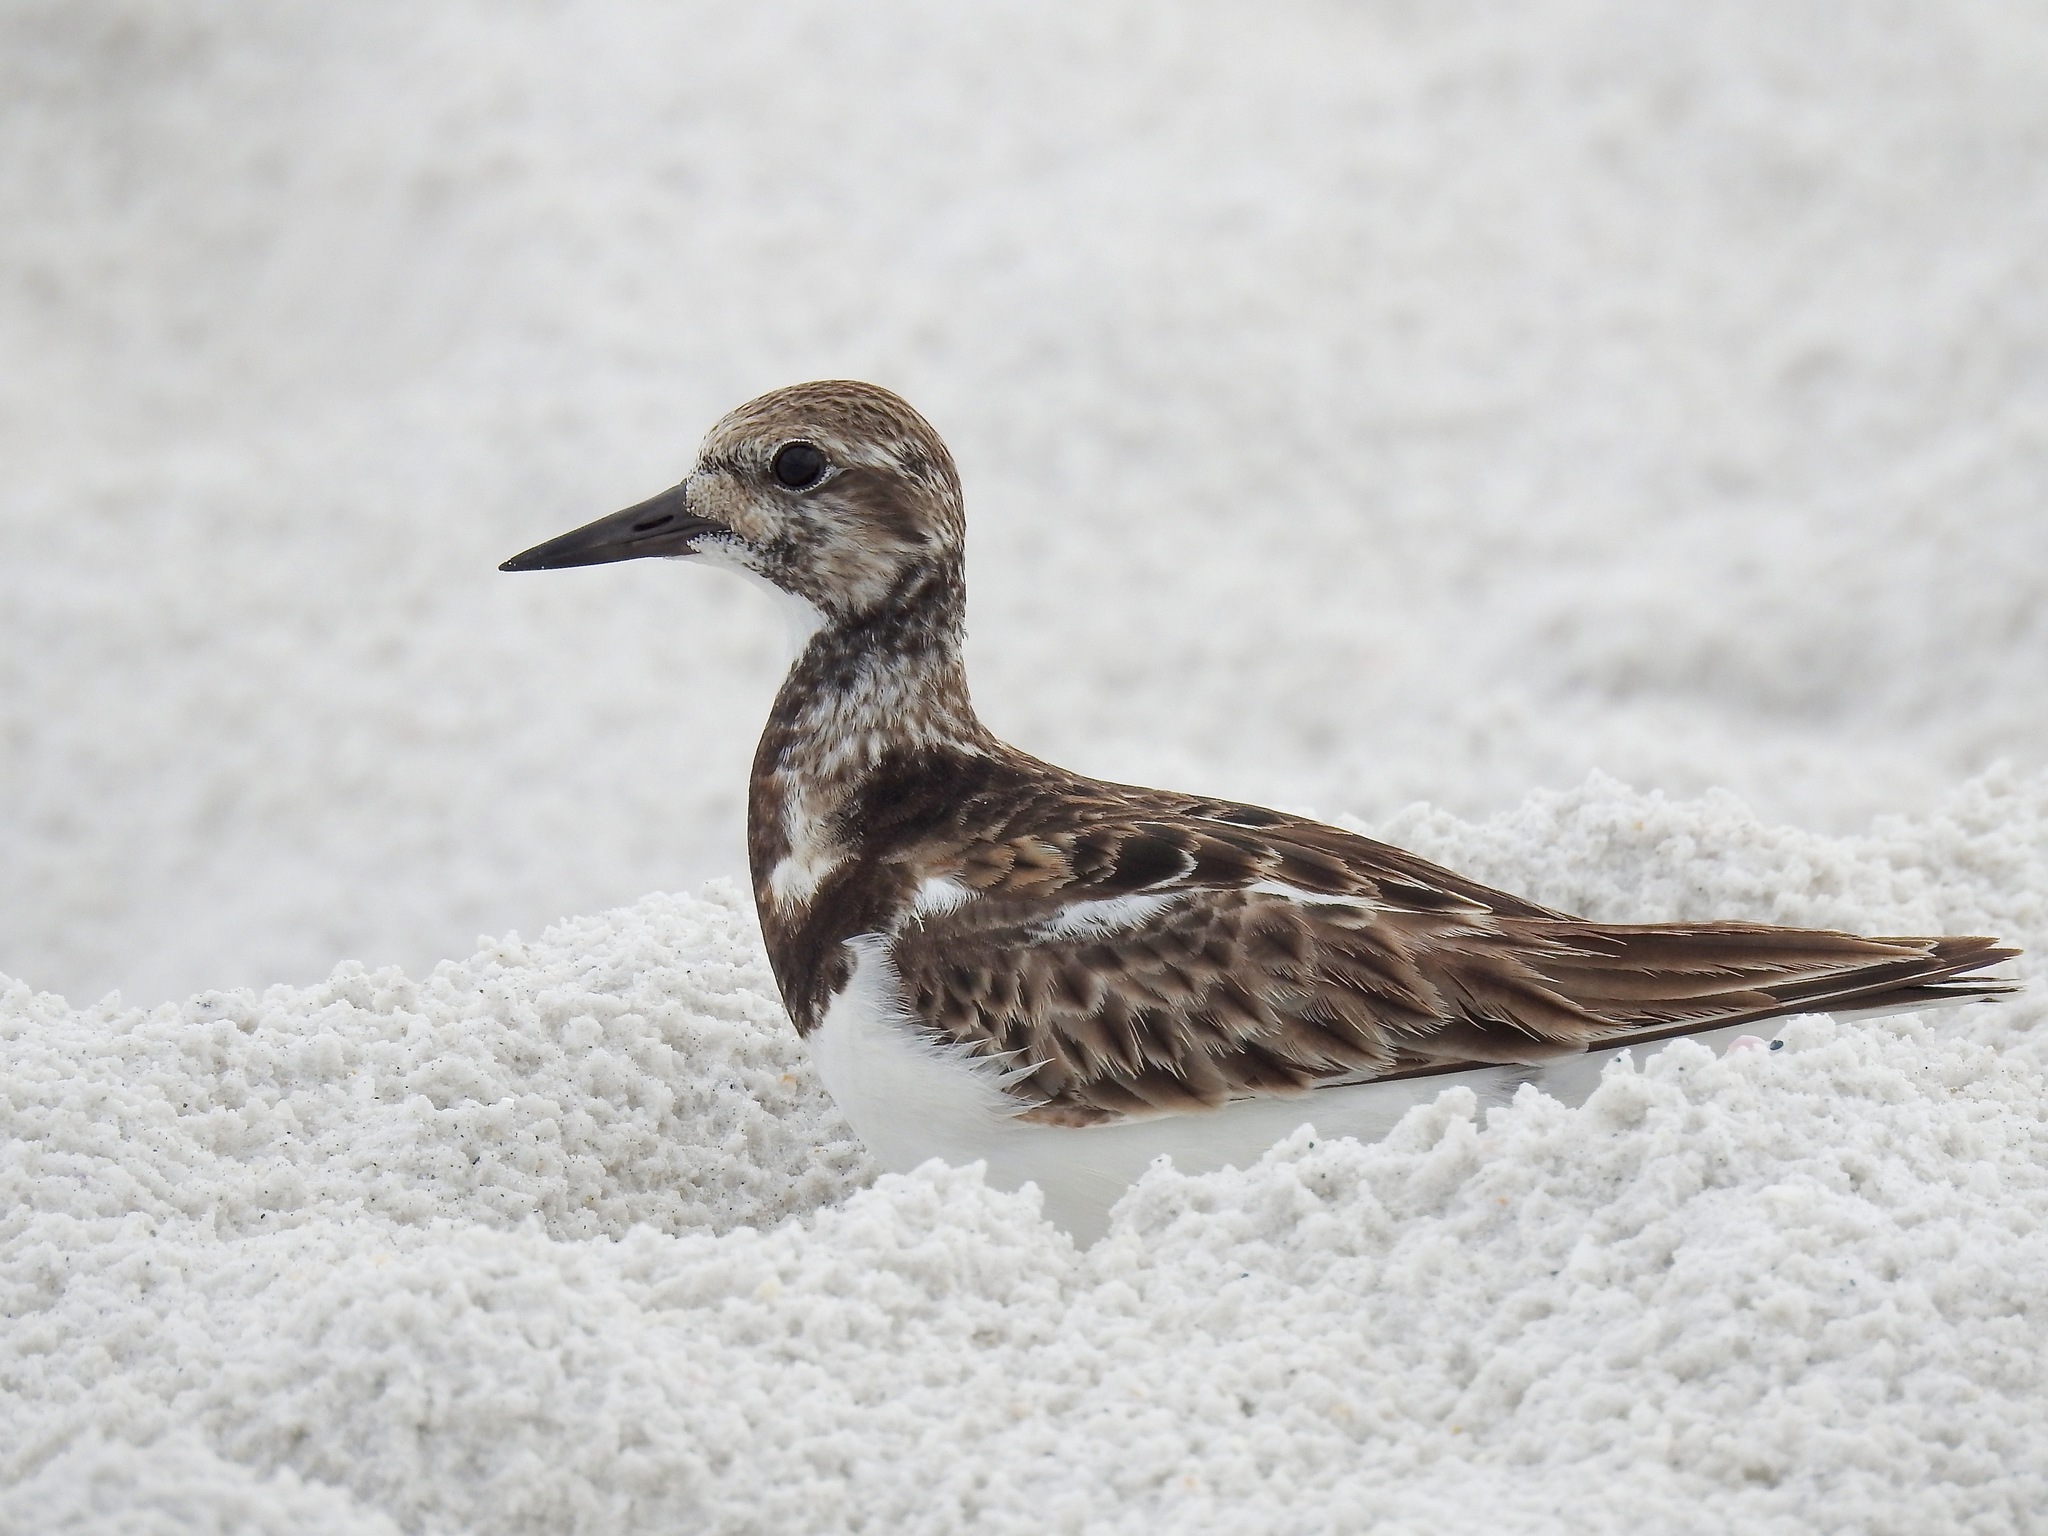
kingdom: Animalia
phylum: Chordata
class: Aves
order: Charadriiformes
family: Scolopacidae
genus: Arenaria
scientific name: Arenaria interpres
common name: Ruddy turnstone
